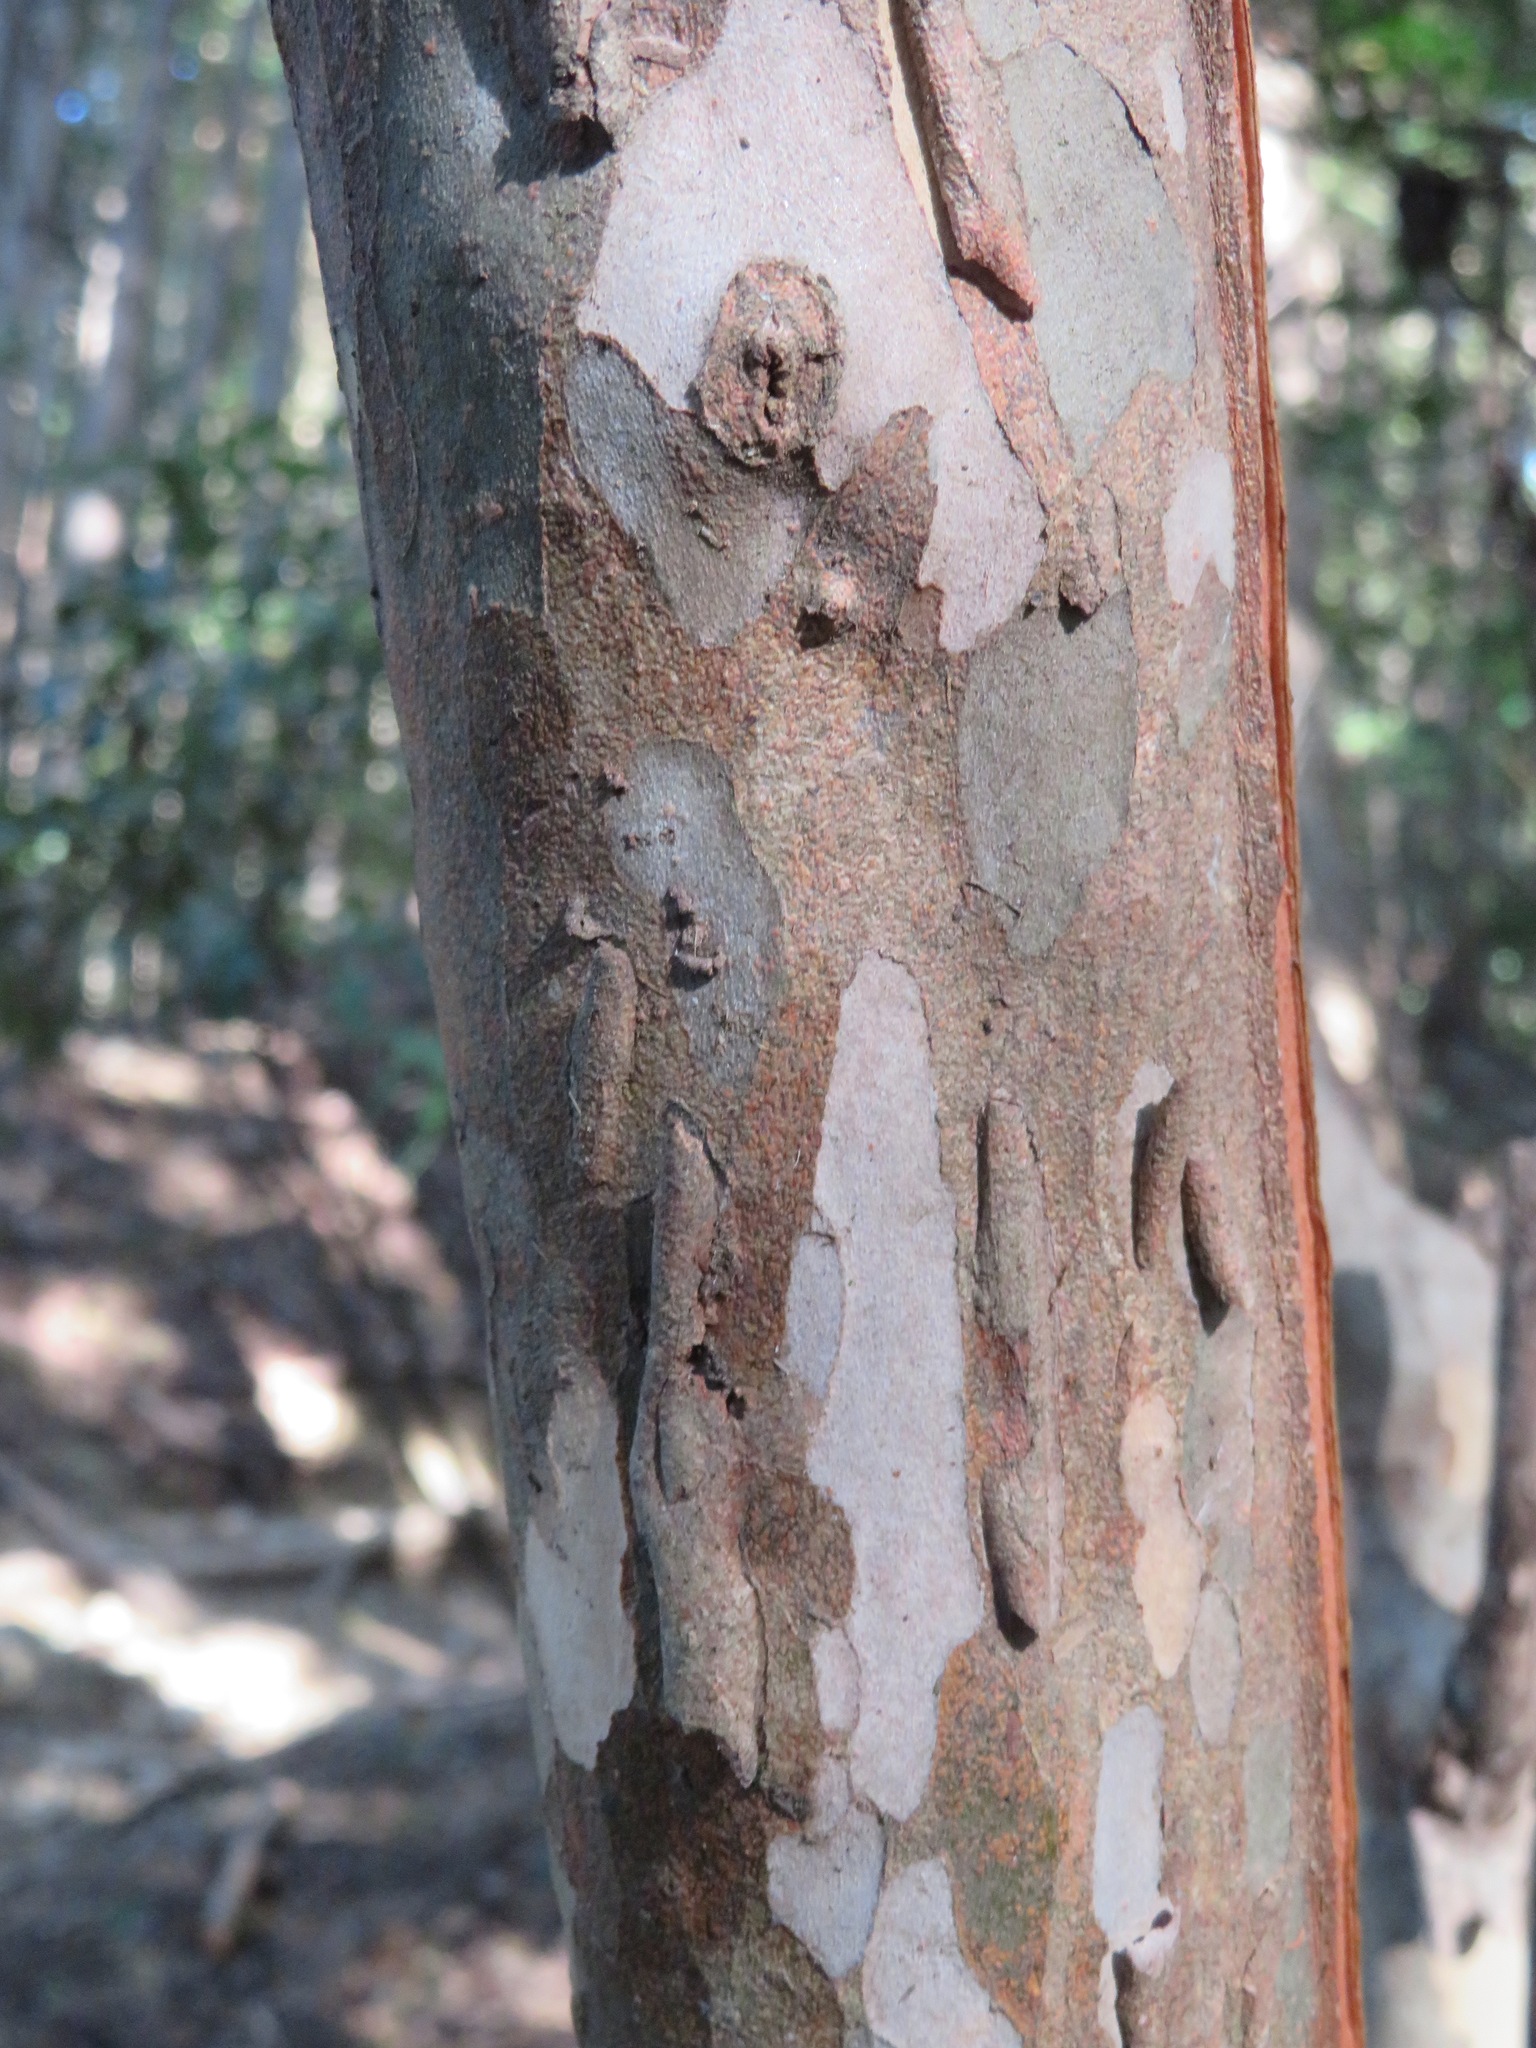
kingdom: Plantae
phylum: Tracheophyta
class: Magnoliopsida
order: Ericales
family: Clethraceae
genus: Clethra
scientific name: Clethra barbinervis
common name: Japanese clethra
